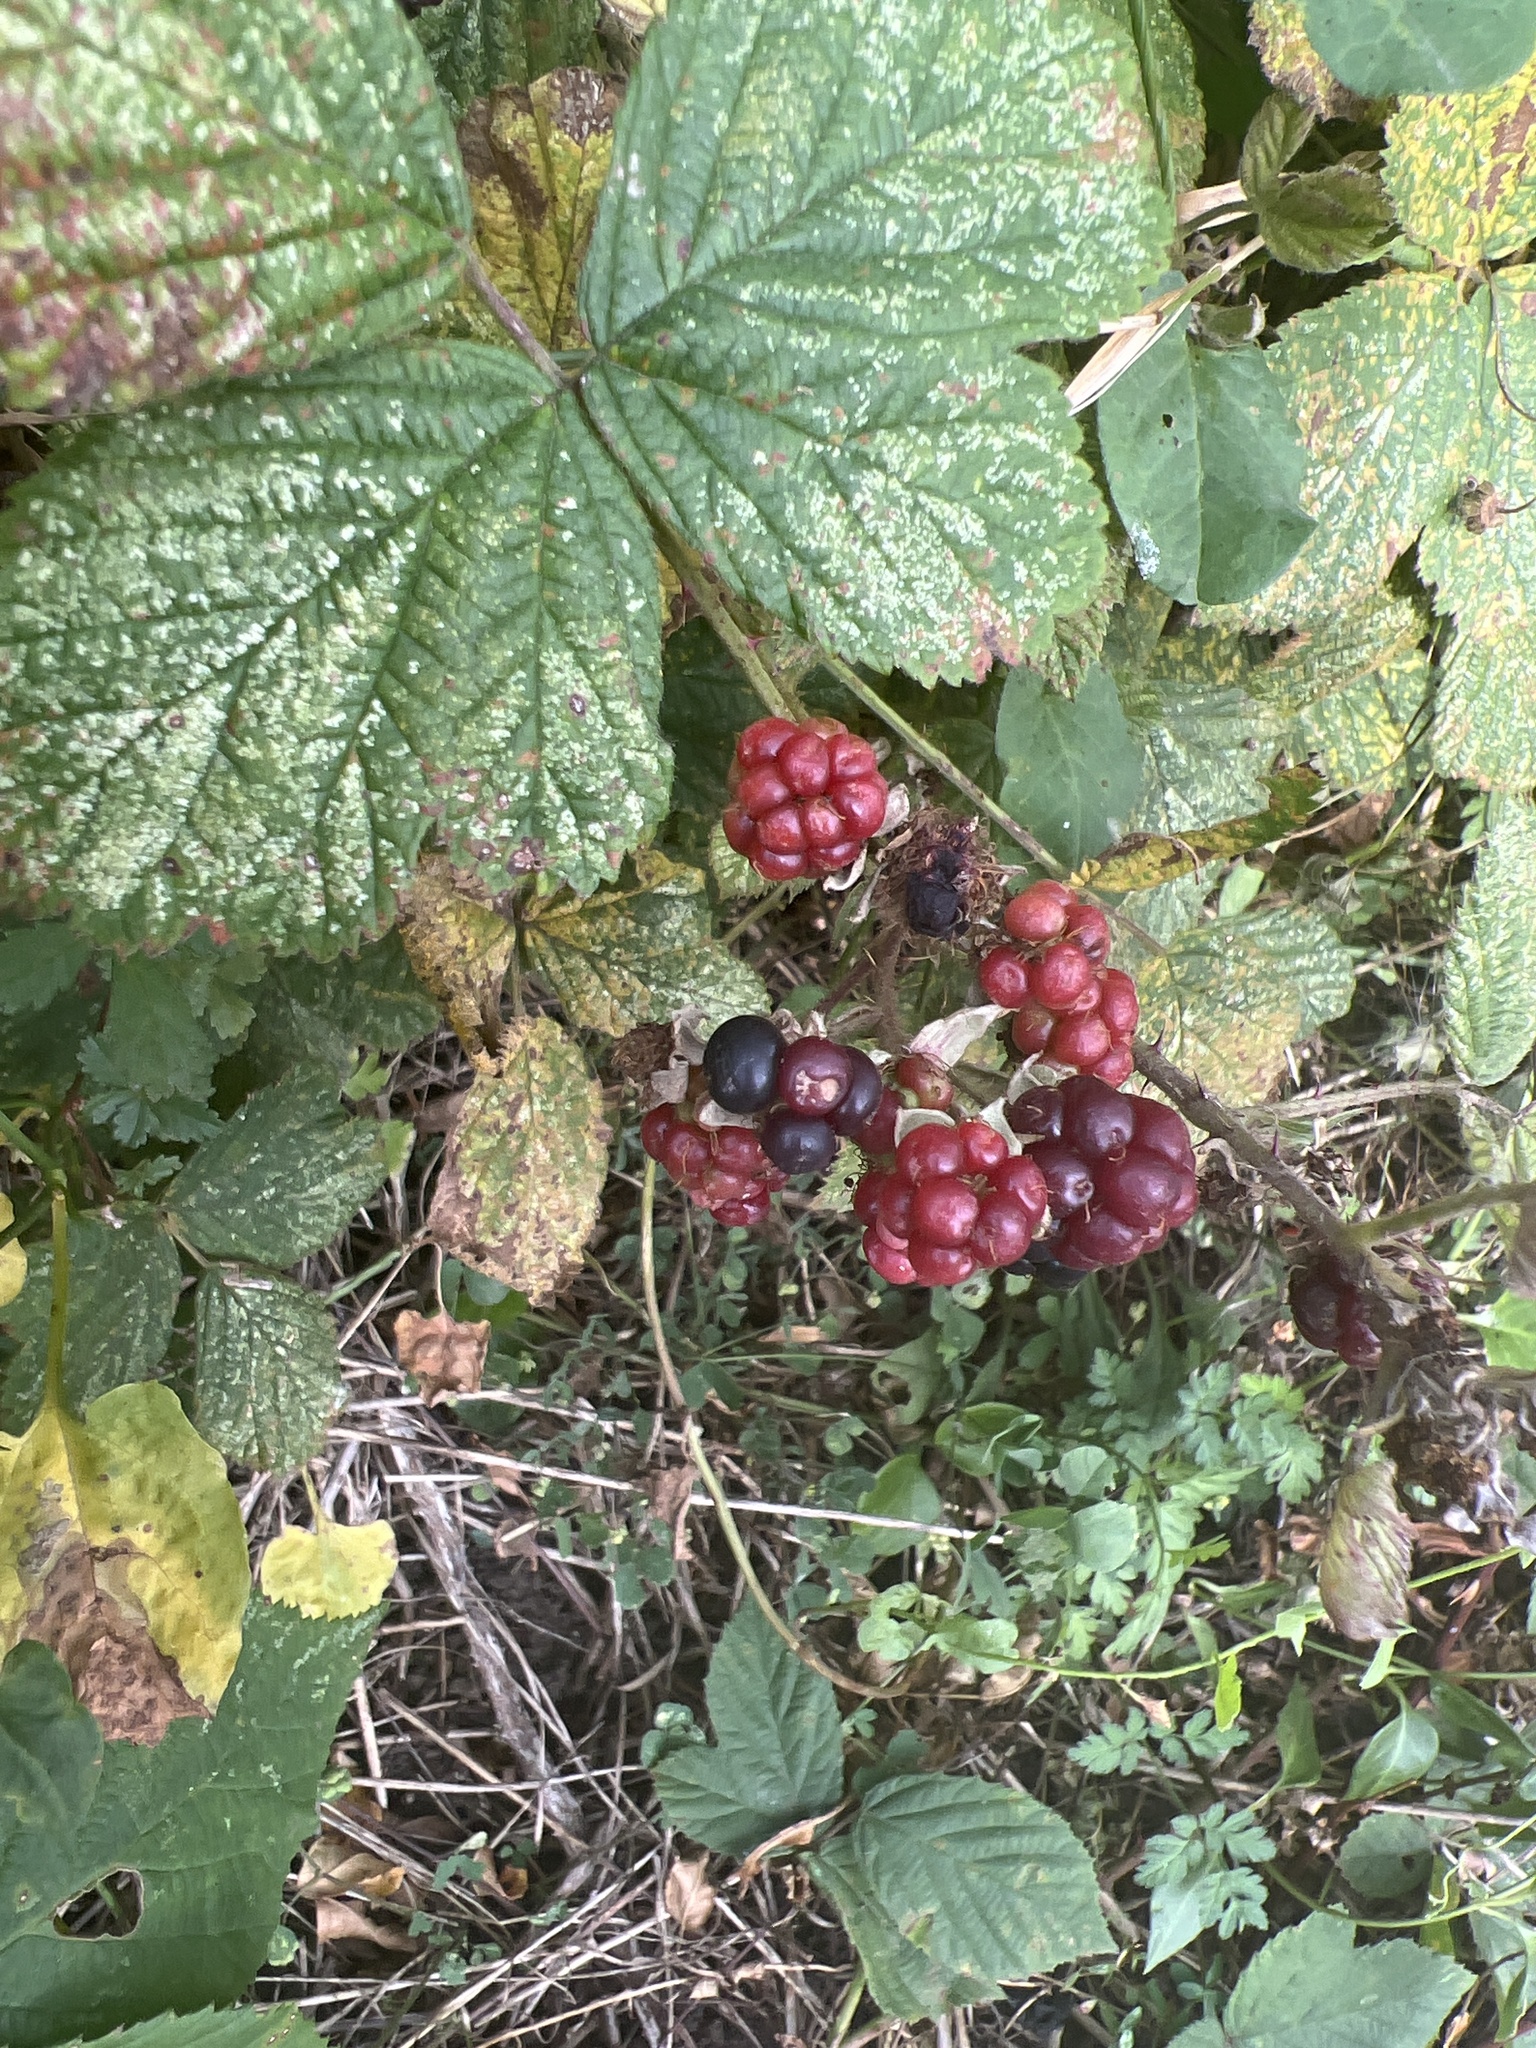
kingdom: Plantae
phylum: Tracheophyta
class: Magnoliopsida
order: Rosales
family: Rosaceae
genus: Rubus
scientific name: Rubus fruticosus
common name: Blackberry, bramble
